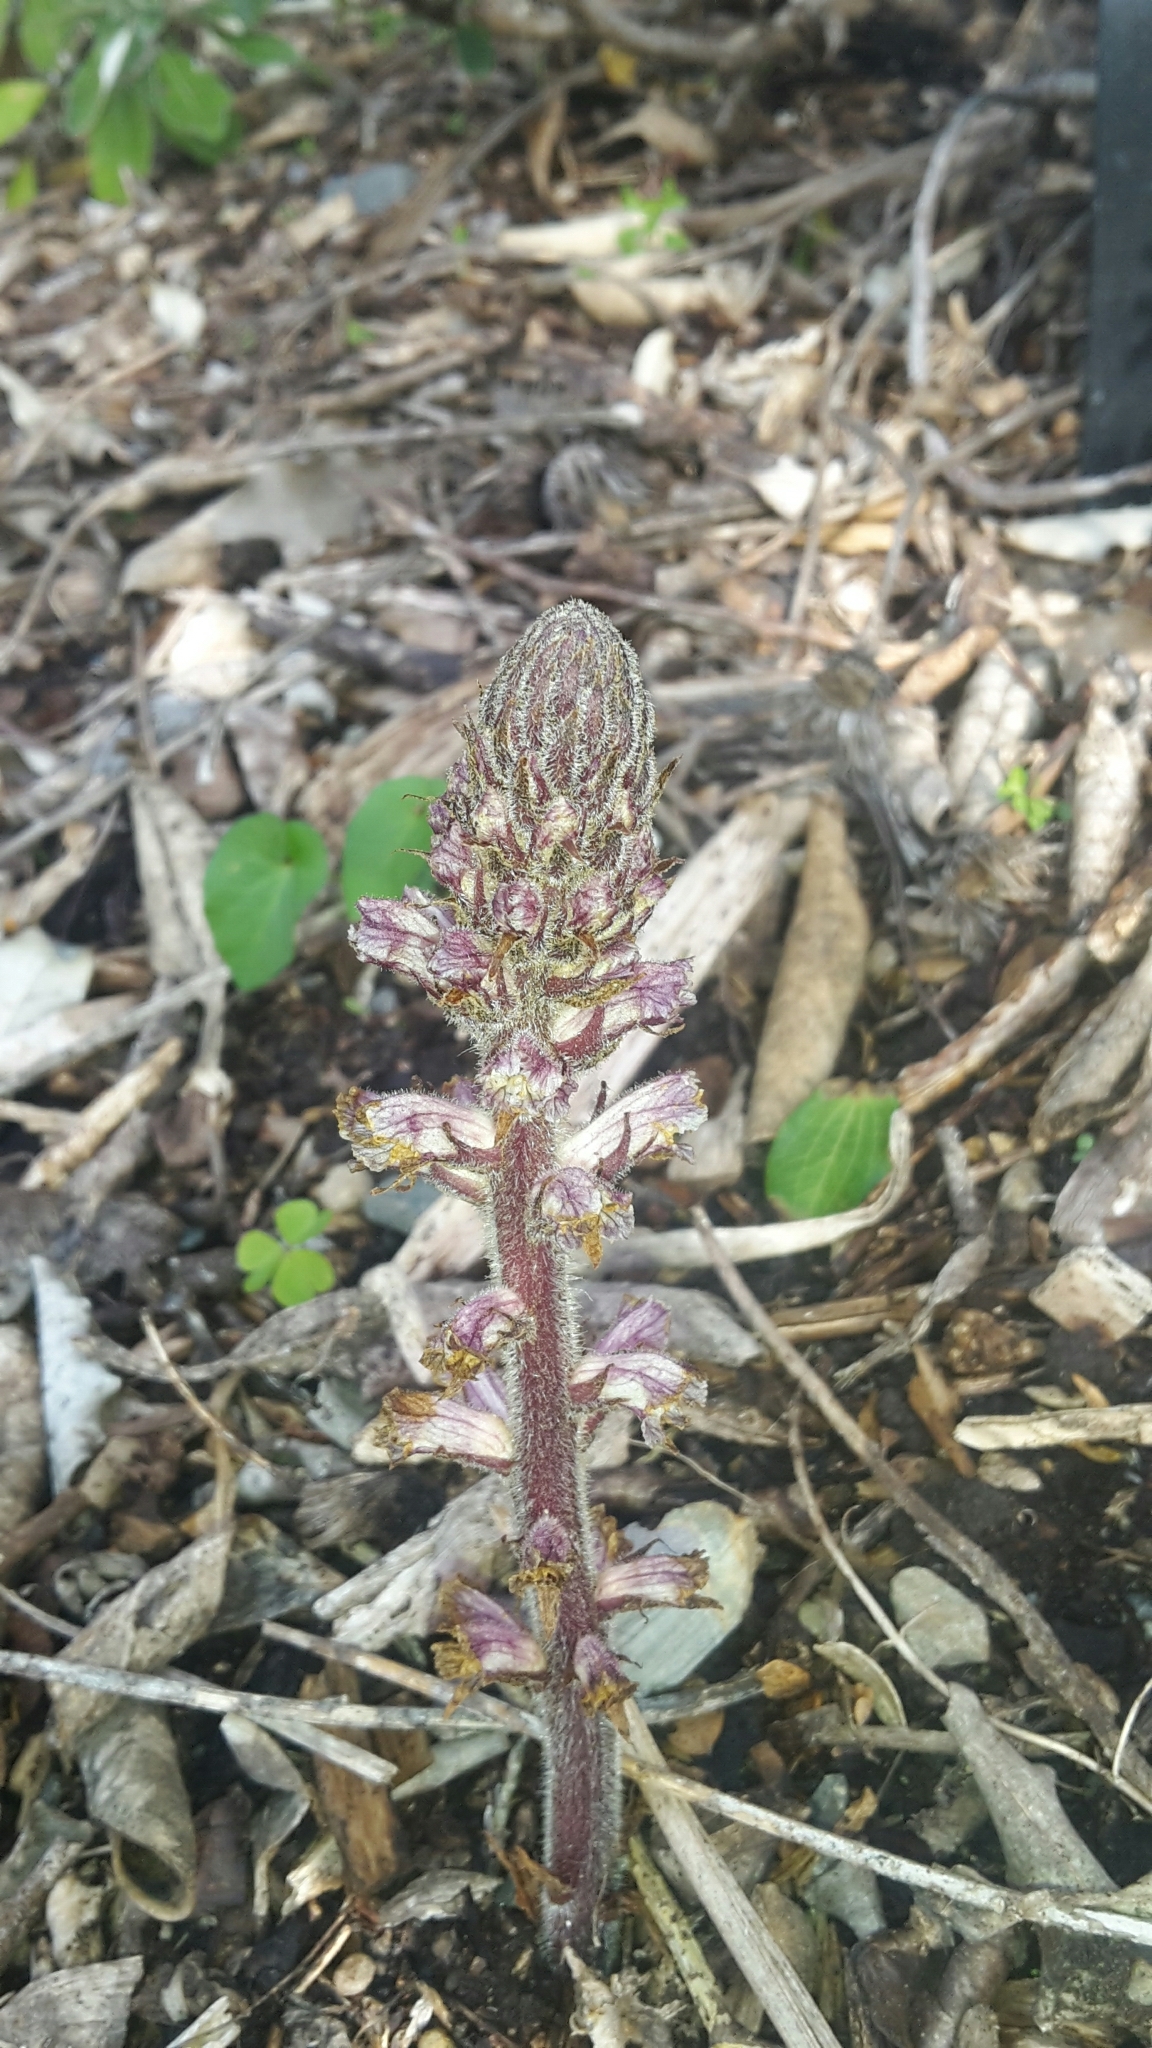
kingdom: Plantae
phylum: Tracheophyta
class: Magnoliopsida
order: Lamiales
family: Orobanchaceae
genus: Orobanche
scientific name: Orobanche minor
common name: Common broomrape
